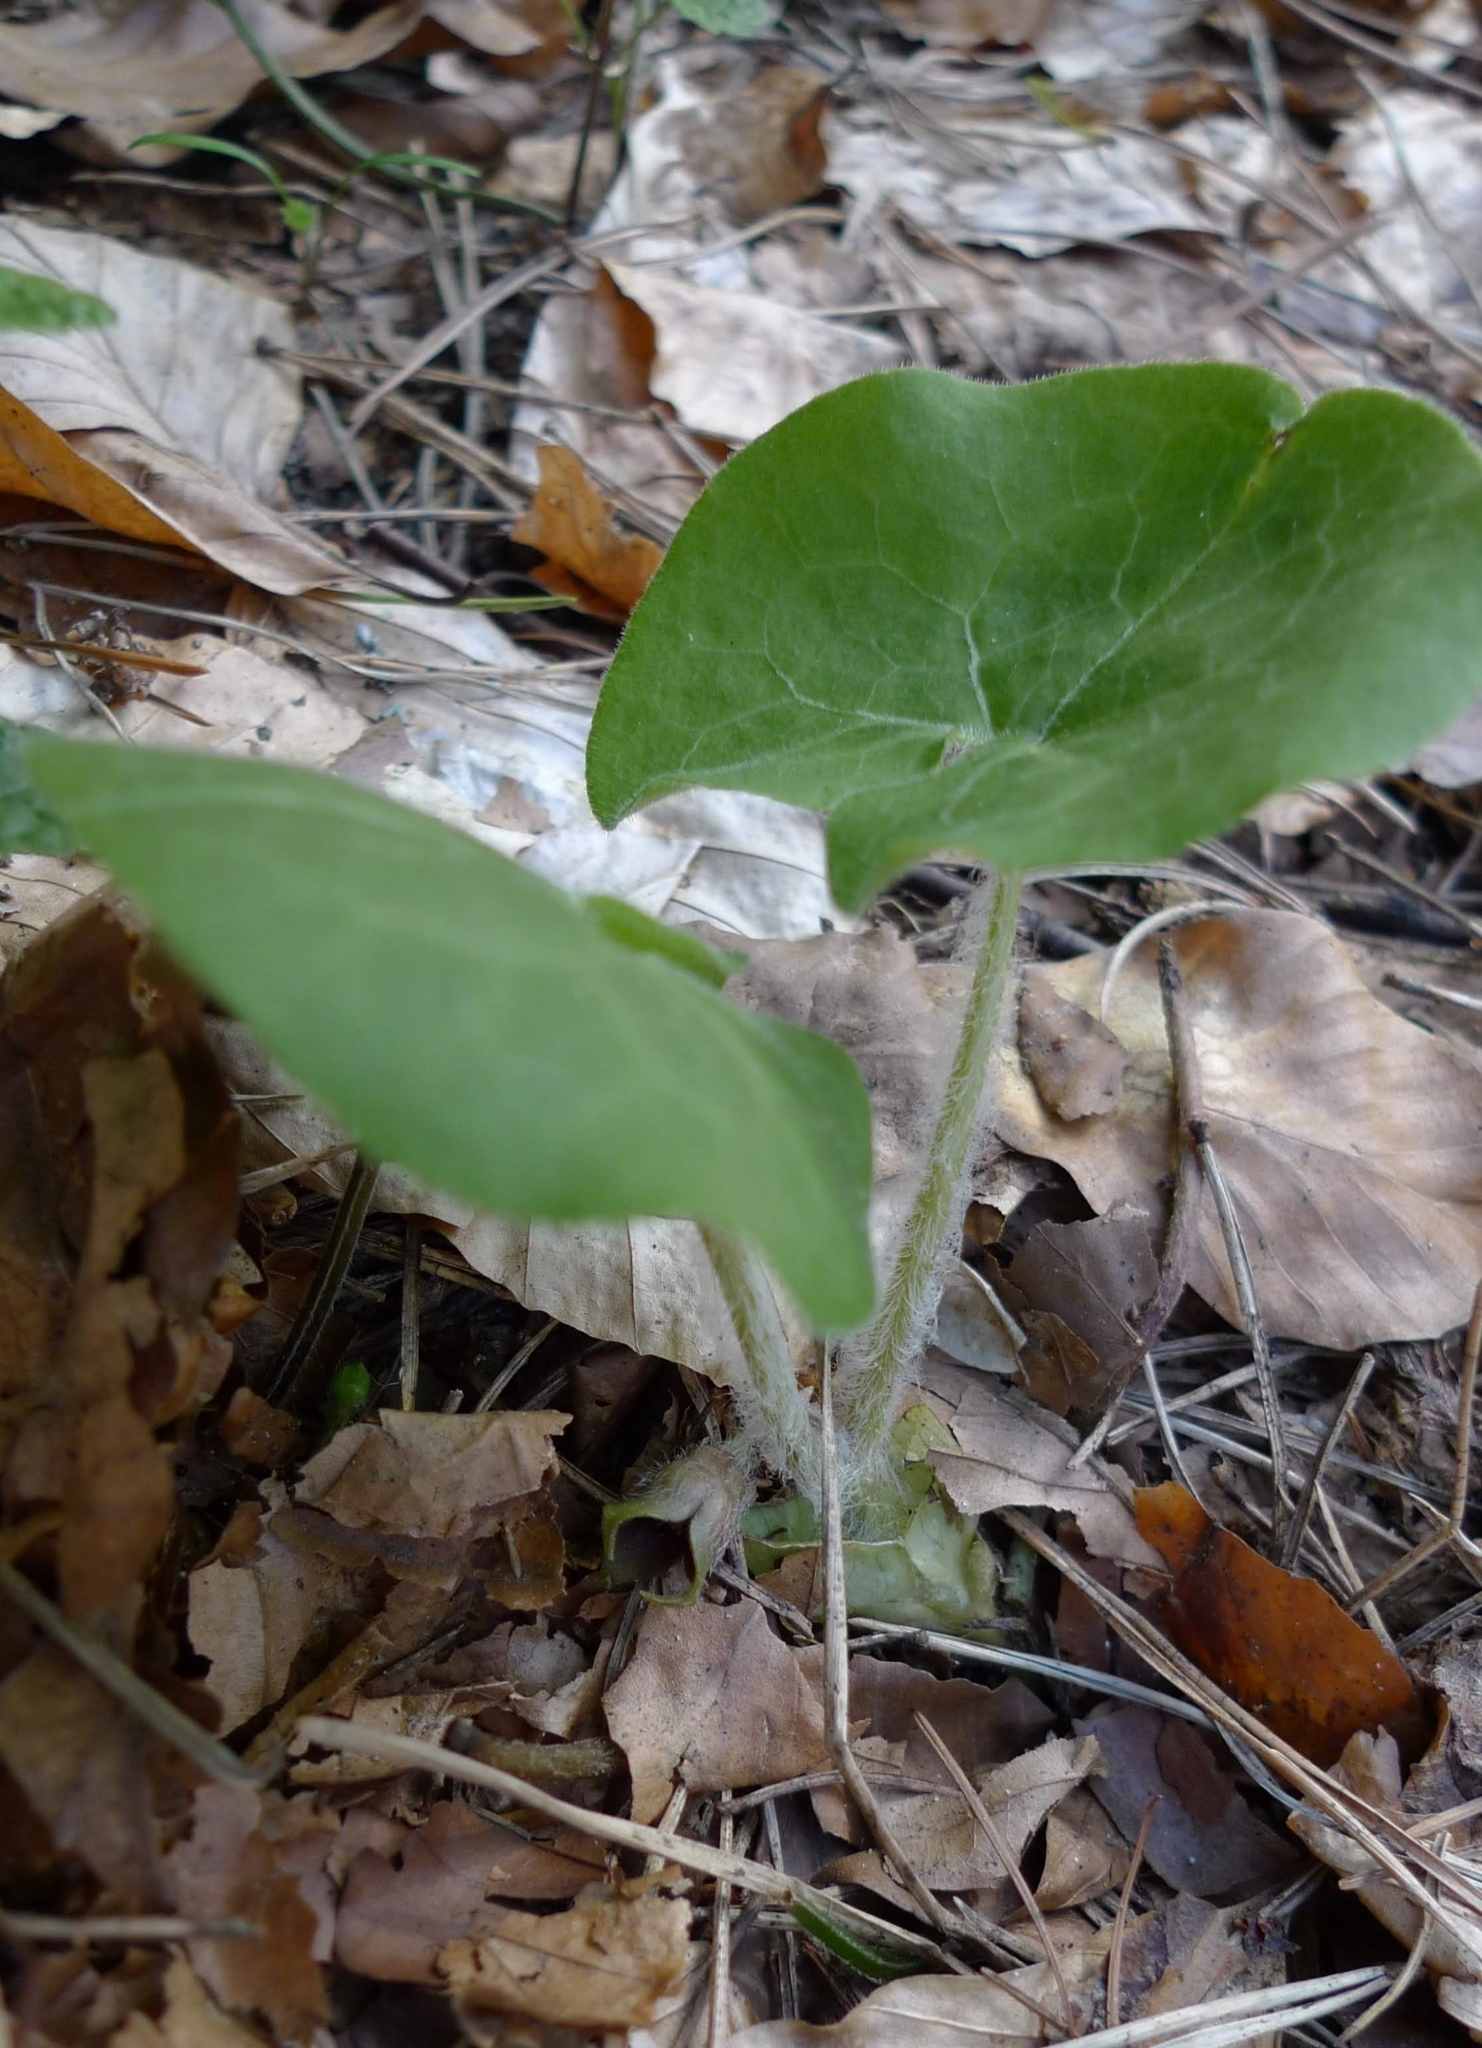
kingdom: Plantae
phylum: Tracheophyta
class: Magnoliopsida
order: Piperales
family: Aristolochiaceae
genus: Asarum
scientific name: Asarum europaeum
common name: Asarabacca
